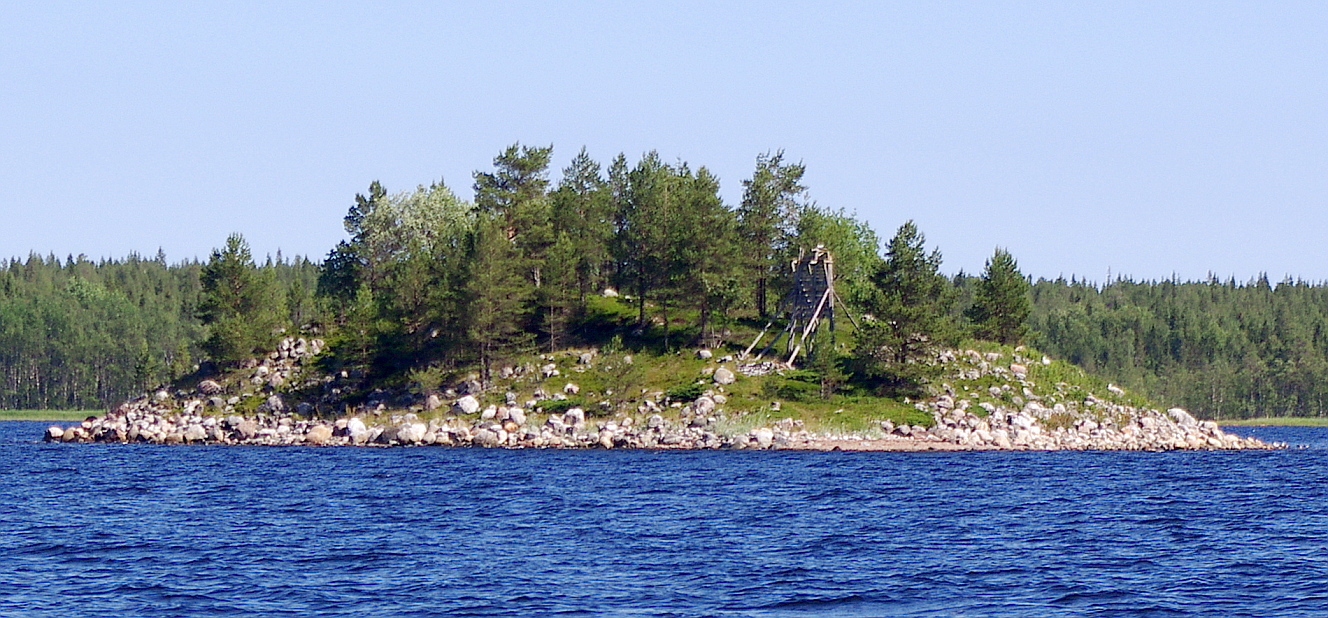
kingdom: Plantae
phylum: Tracheophyta
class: Pinopsida
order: Pinales
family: Pinaceae
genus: Pinus
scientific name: Pinus sylvestris
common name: Scots pine
